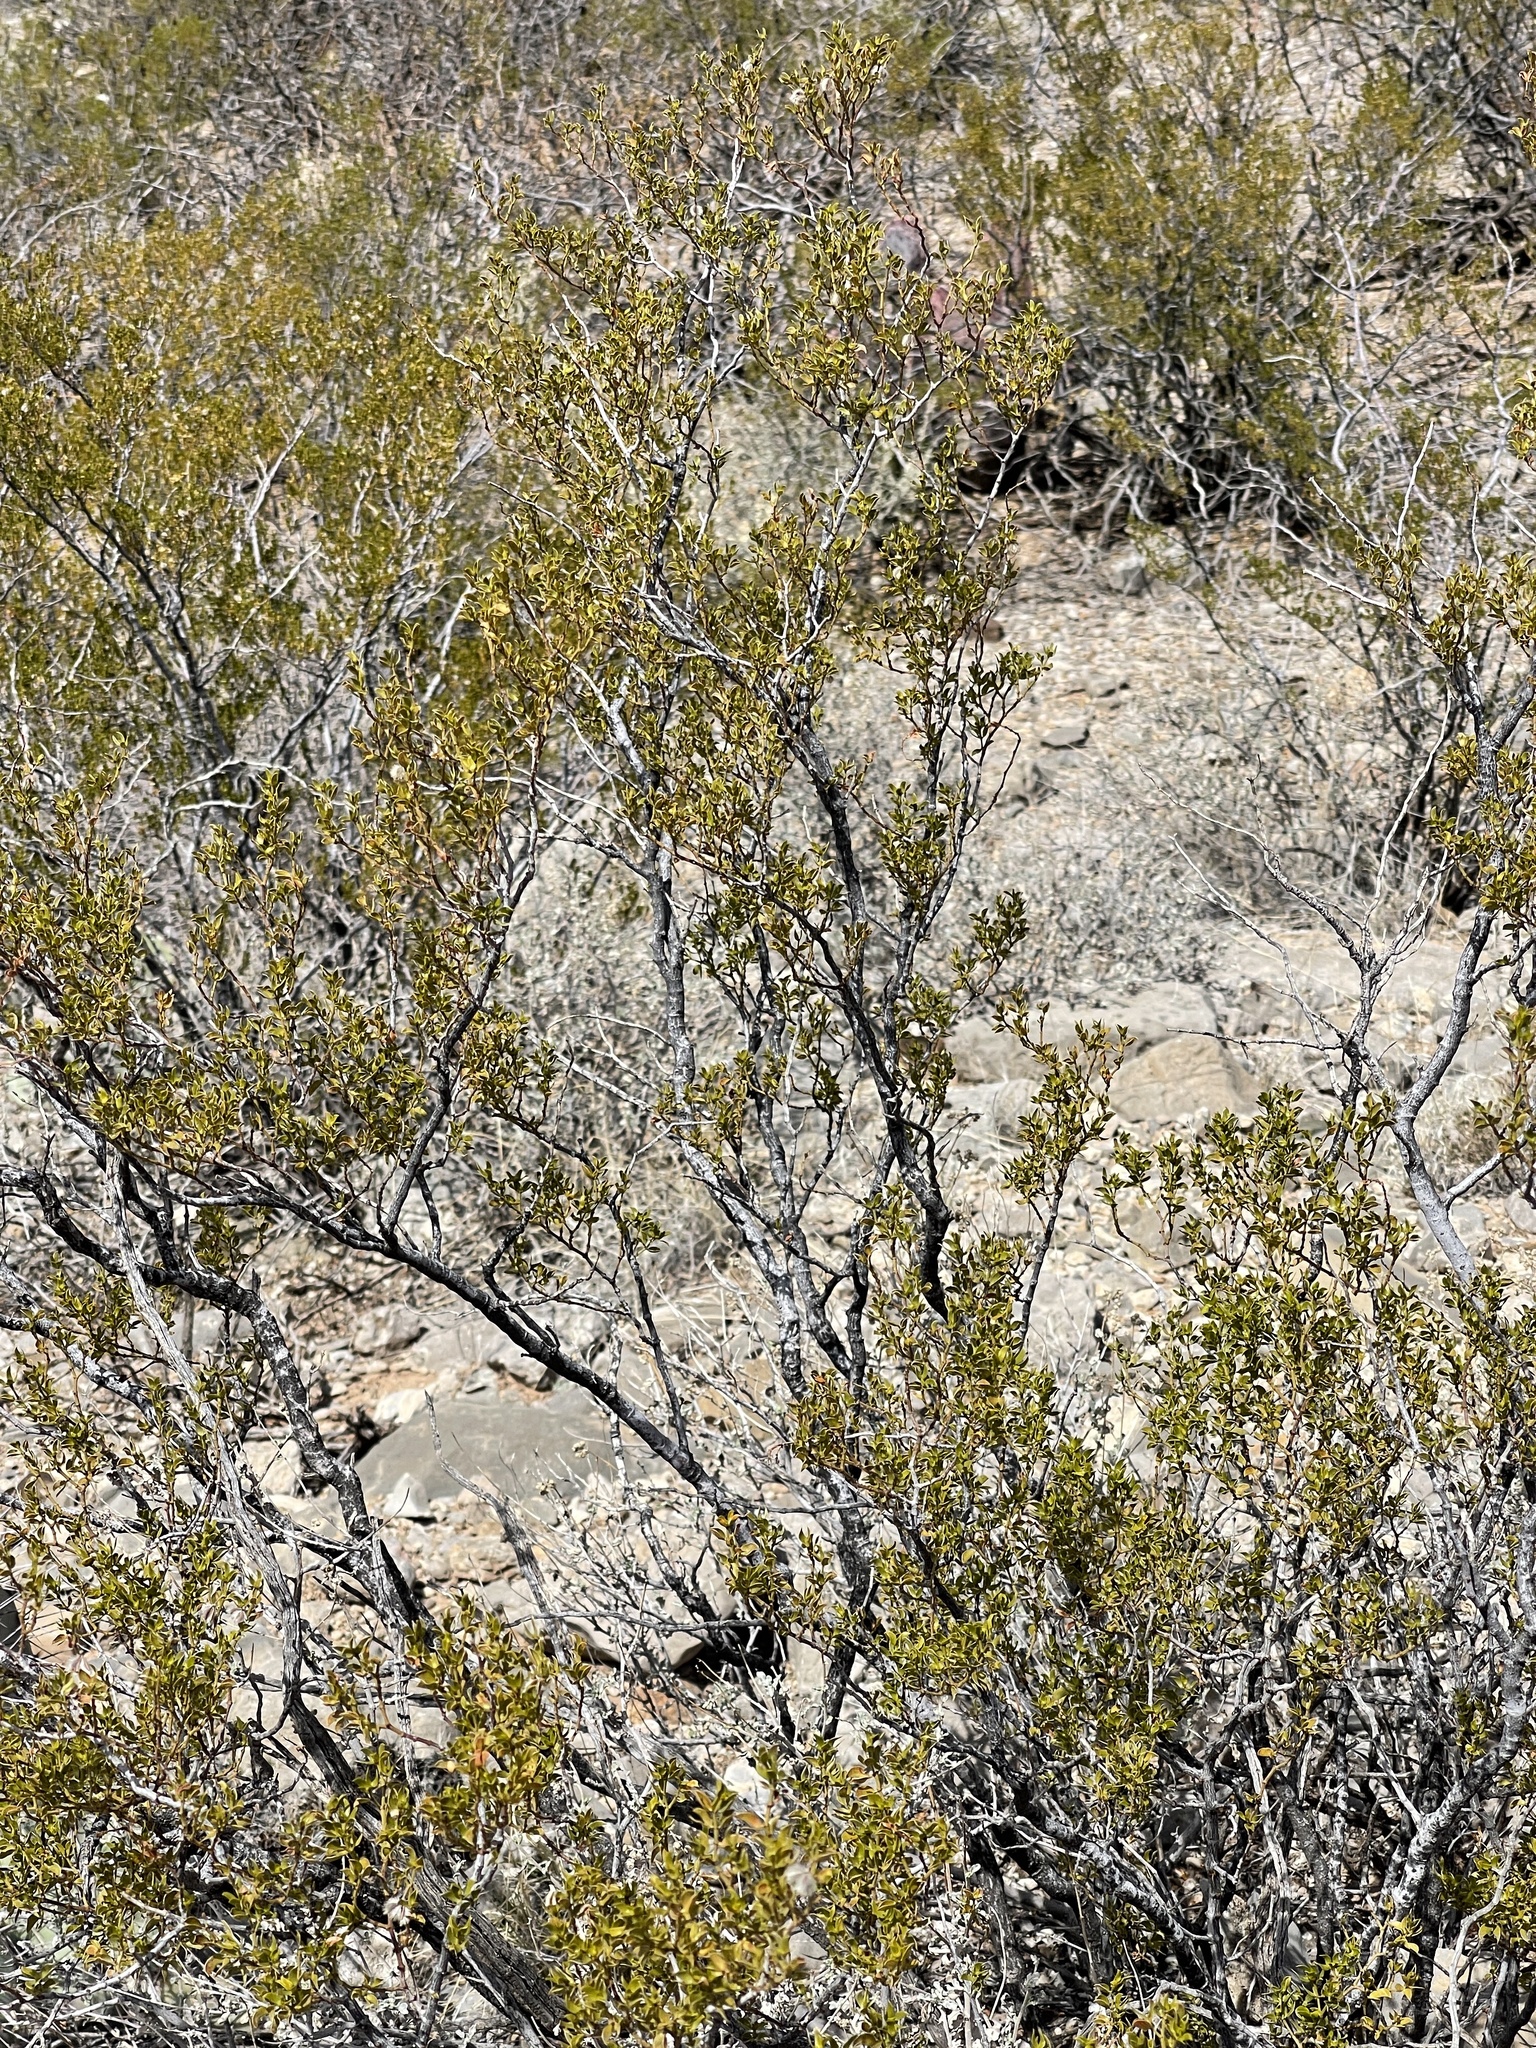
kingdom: Plantae
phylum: Tracheophyta
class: Magnoliopsida
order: Zygophyllales
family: Zygophyllaceae
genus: Larrea
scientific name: Larrea tridentata
